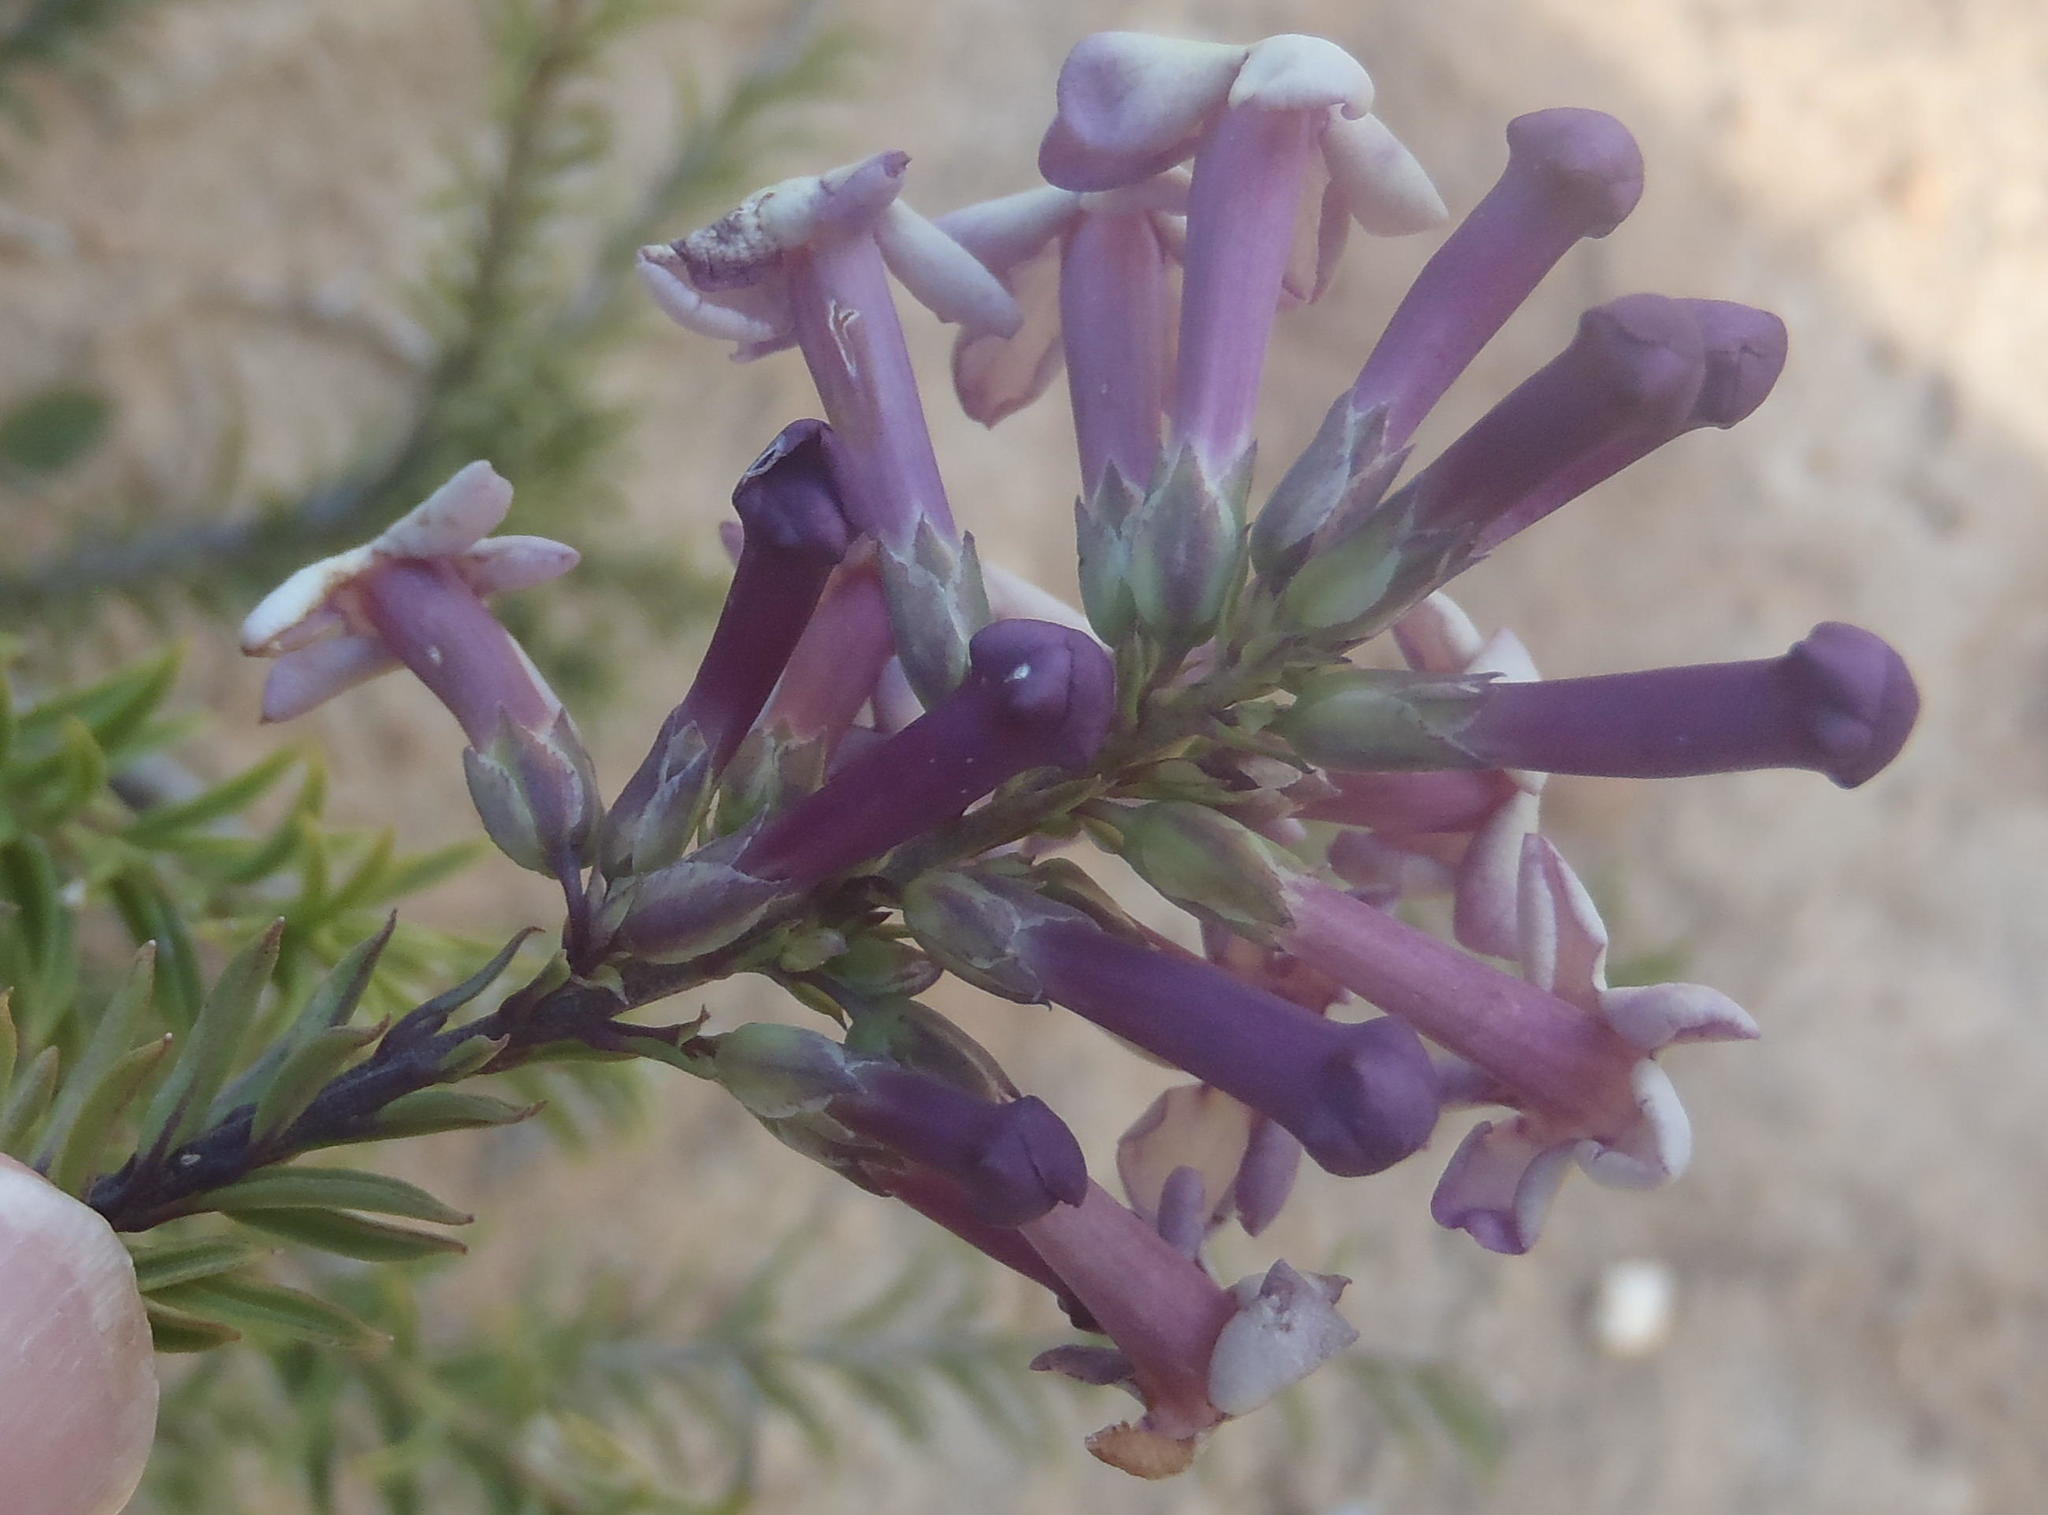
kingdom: Plantae
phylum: Tracheophyta
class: Magnoliopsida
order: Lamiales
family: Scrophulariaceae
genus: Freylinia
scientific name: Freylinia densiflora
